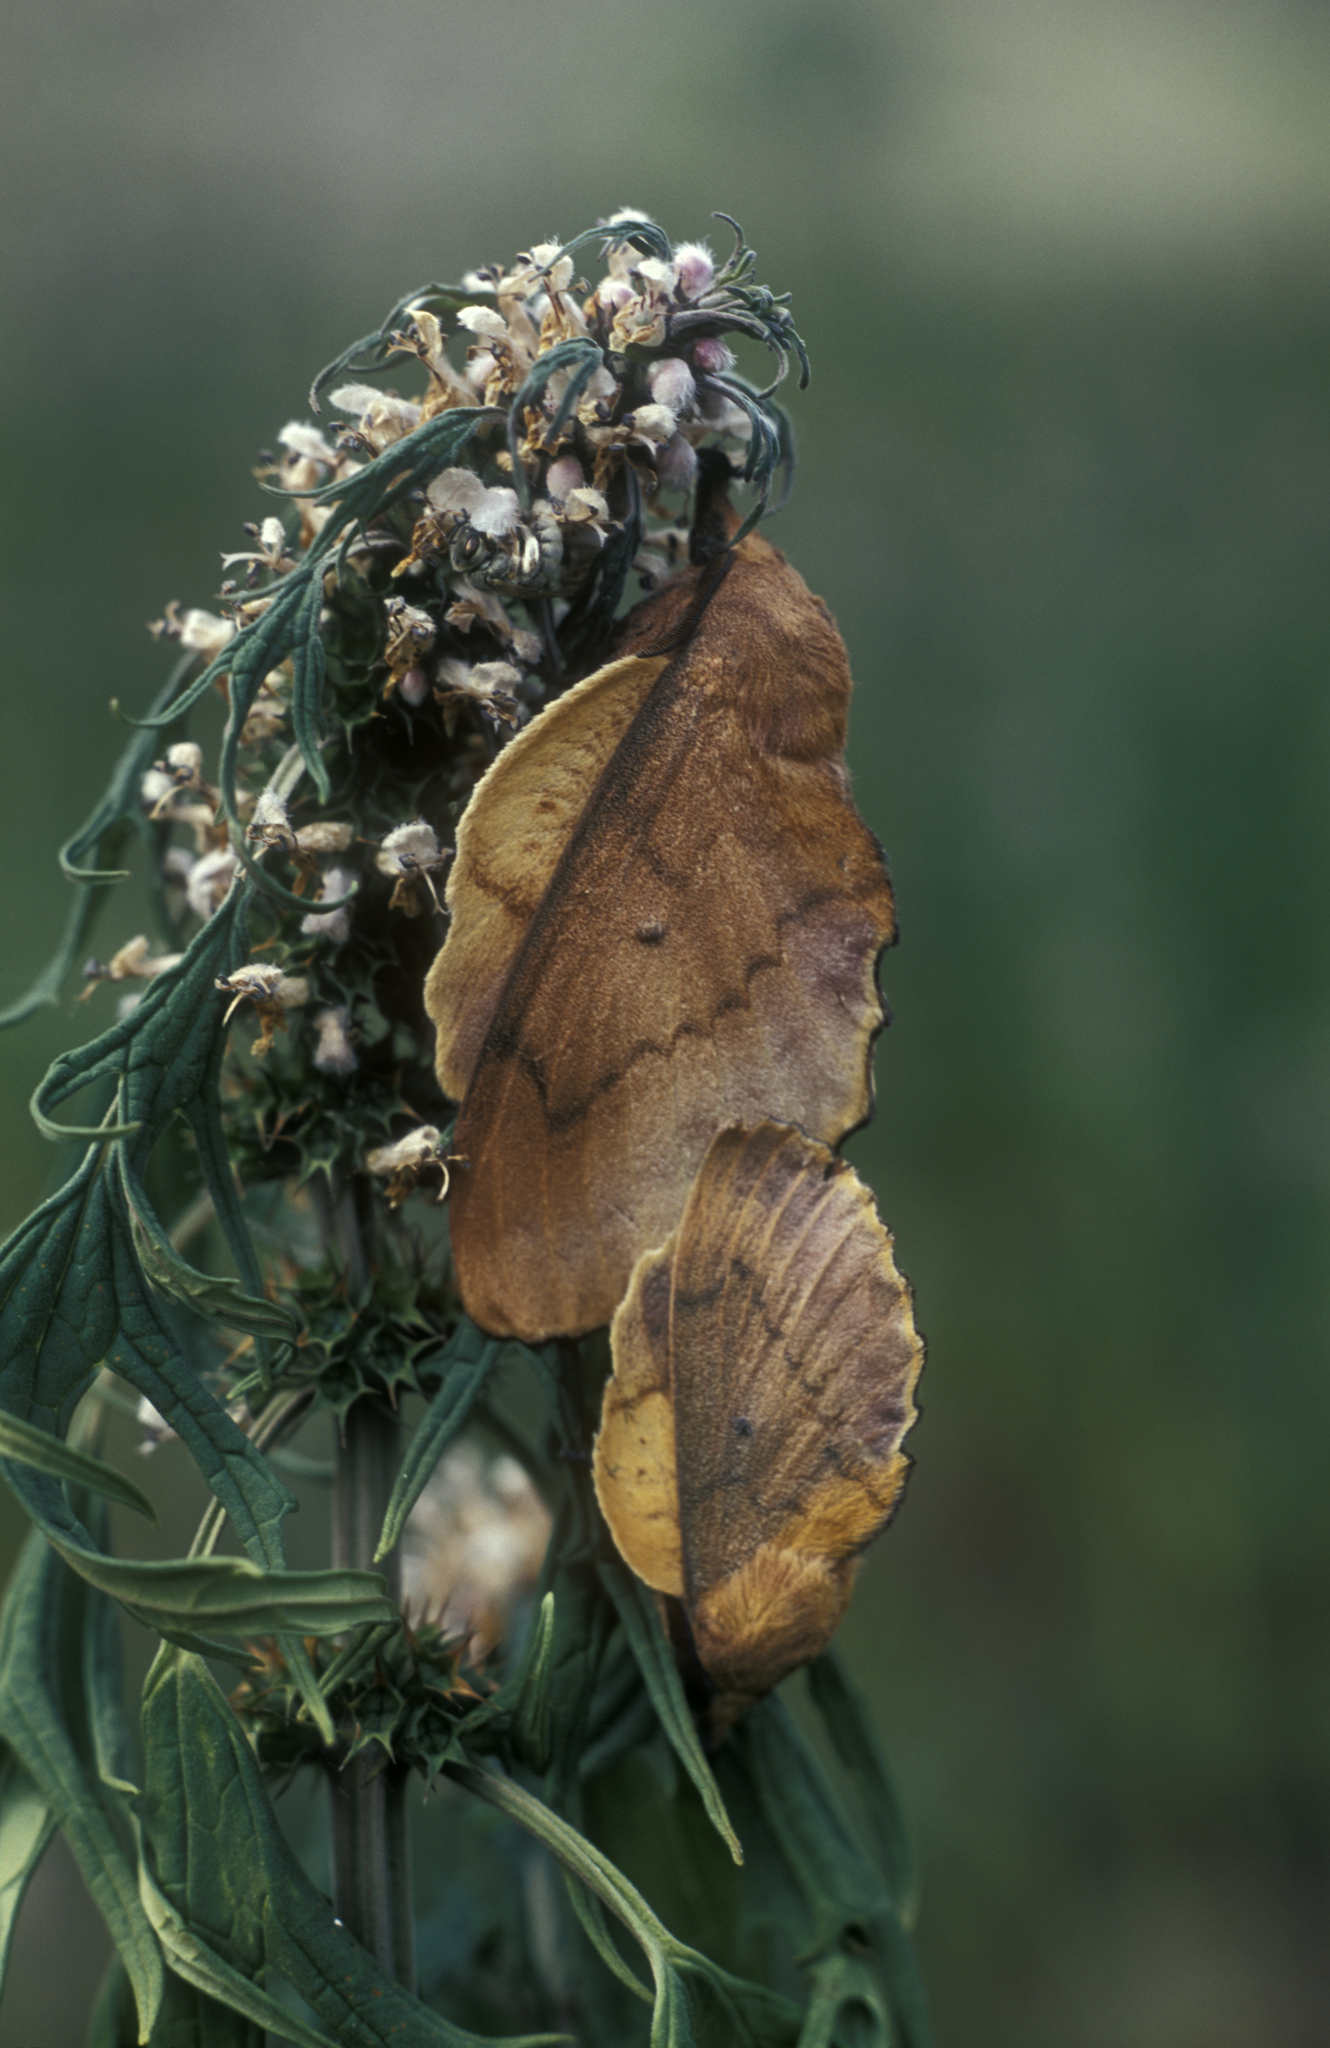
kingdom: Animalia
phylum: Arthropoda
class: Insecta
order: Lepidoptera
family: Lasiocampidae
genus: Gastropacha
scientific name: Gastropacha quercifolia
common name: Lappet
